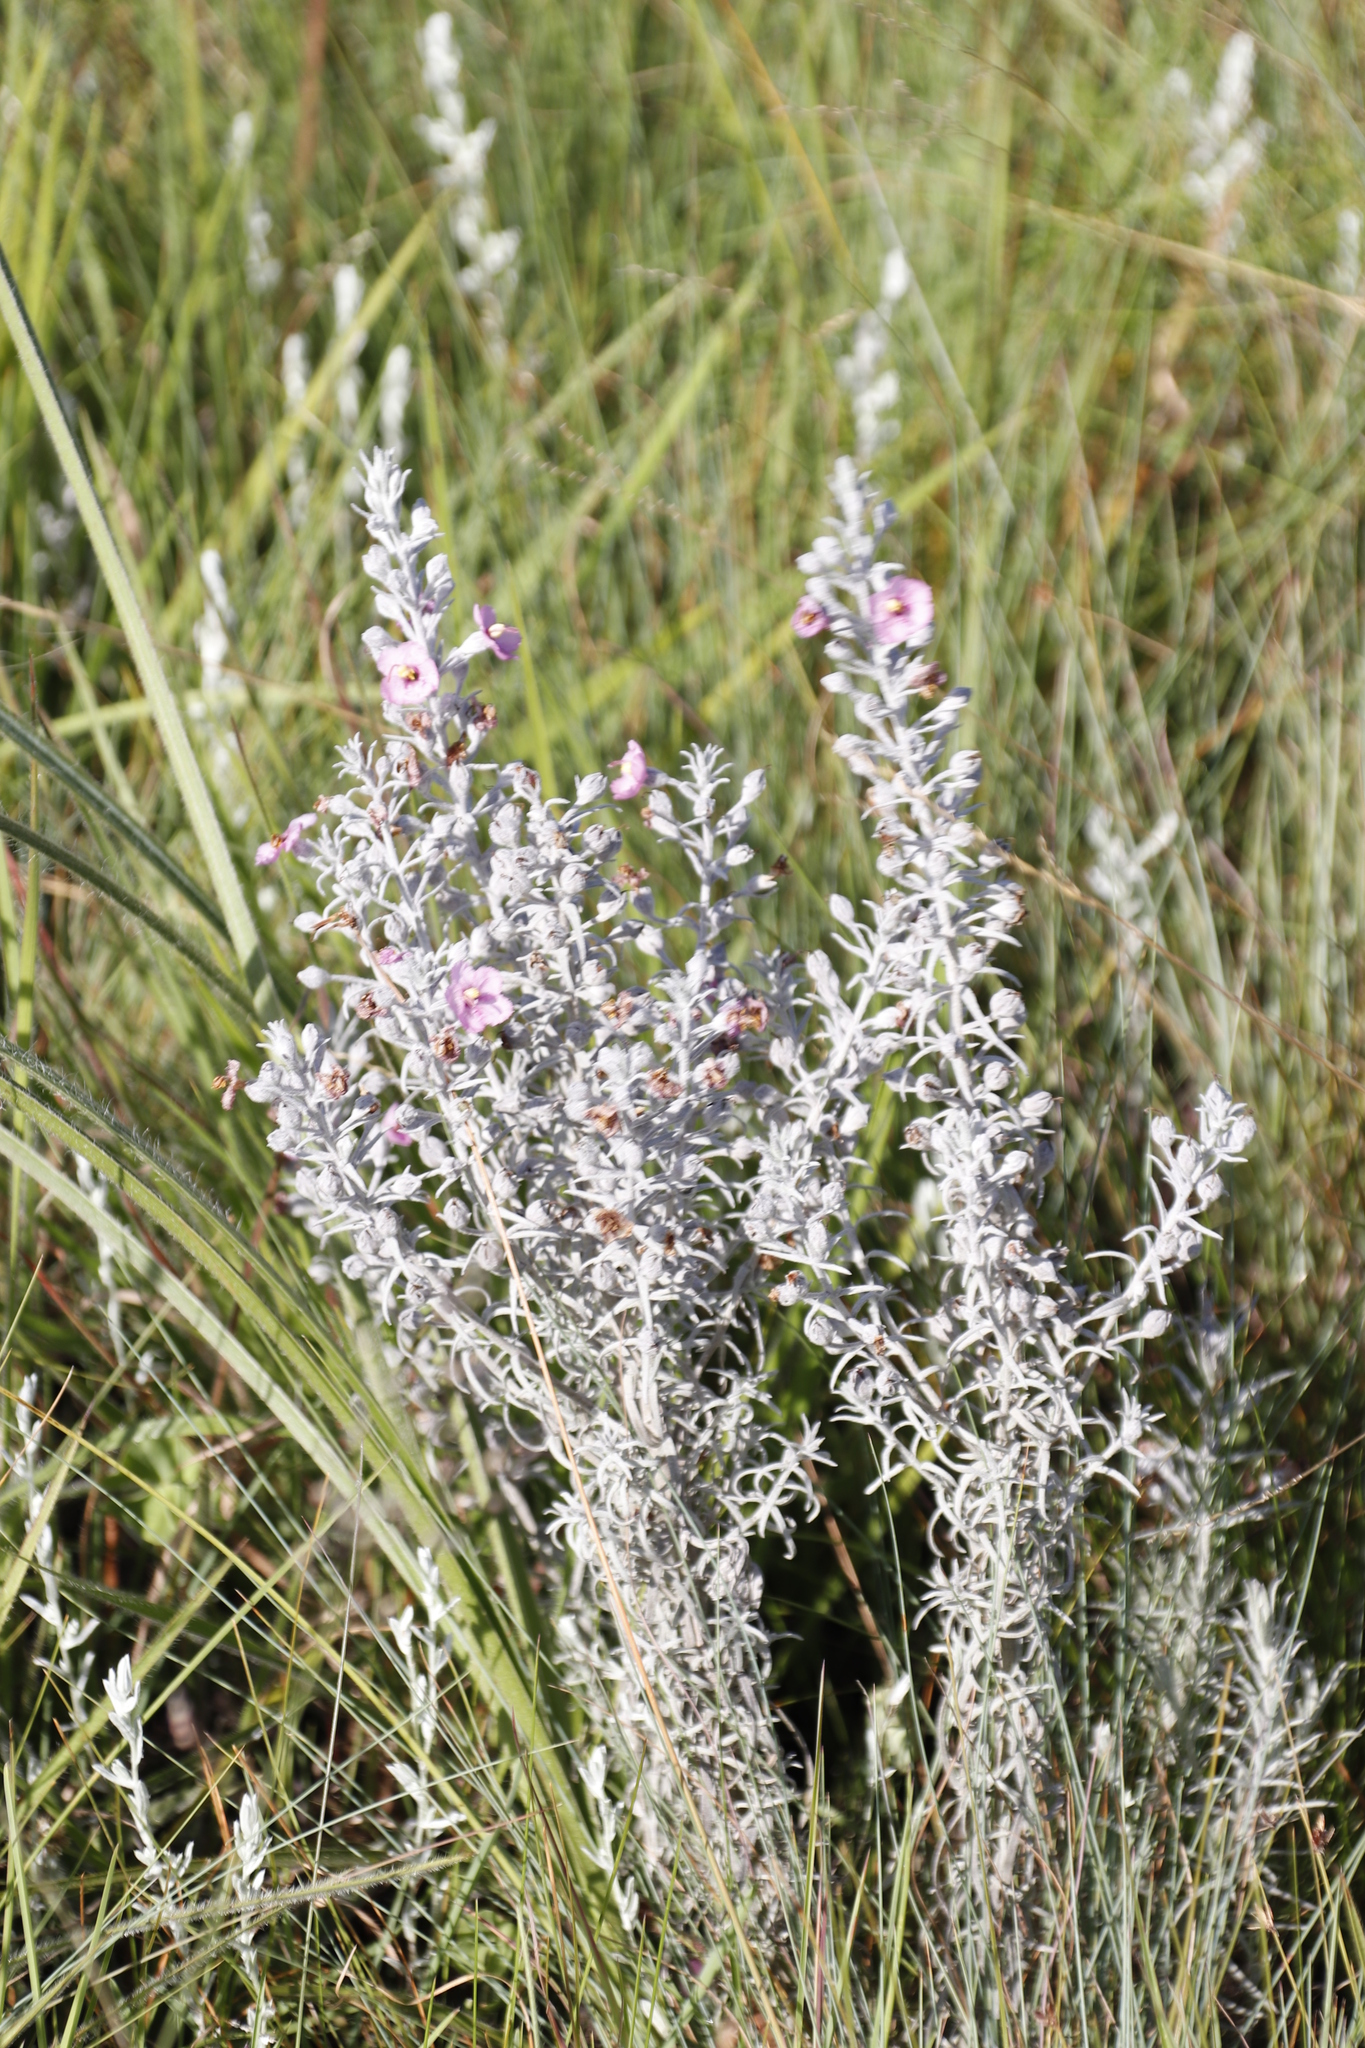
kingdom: Plantae
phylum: Tracheophyta
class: Magnoliopsida
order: Lamiales
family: Orobanchaceae
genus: Sopubia
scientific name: Sopubia cana
